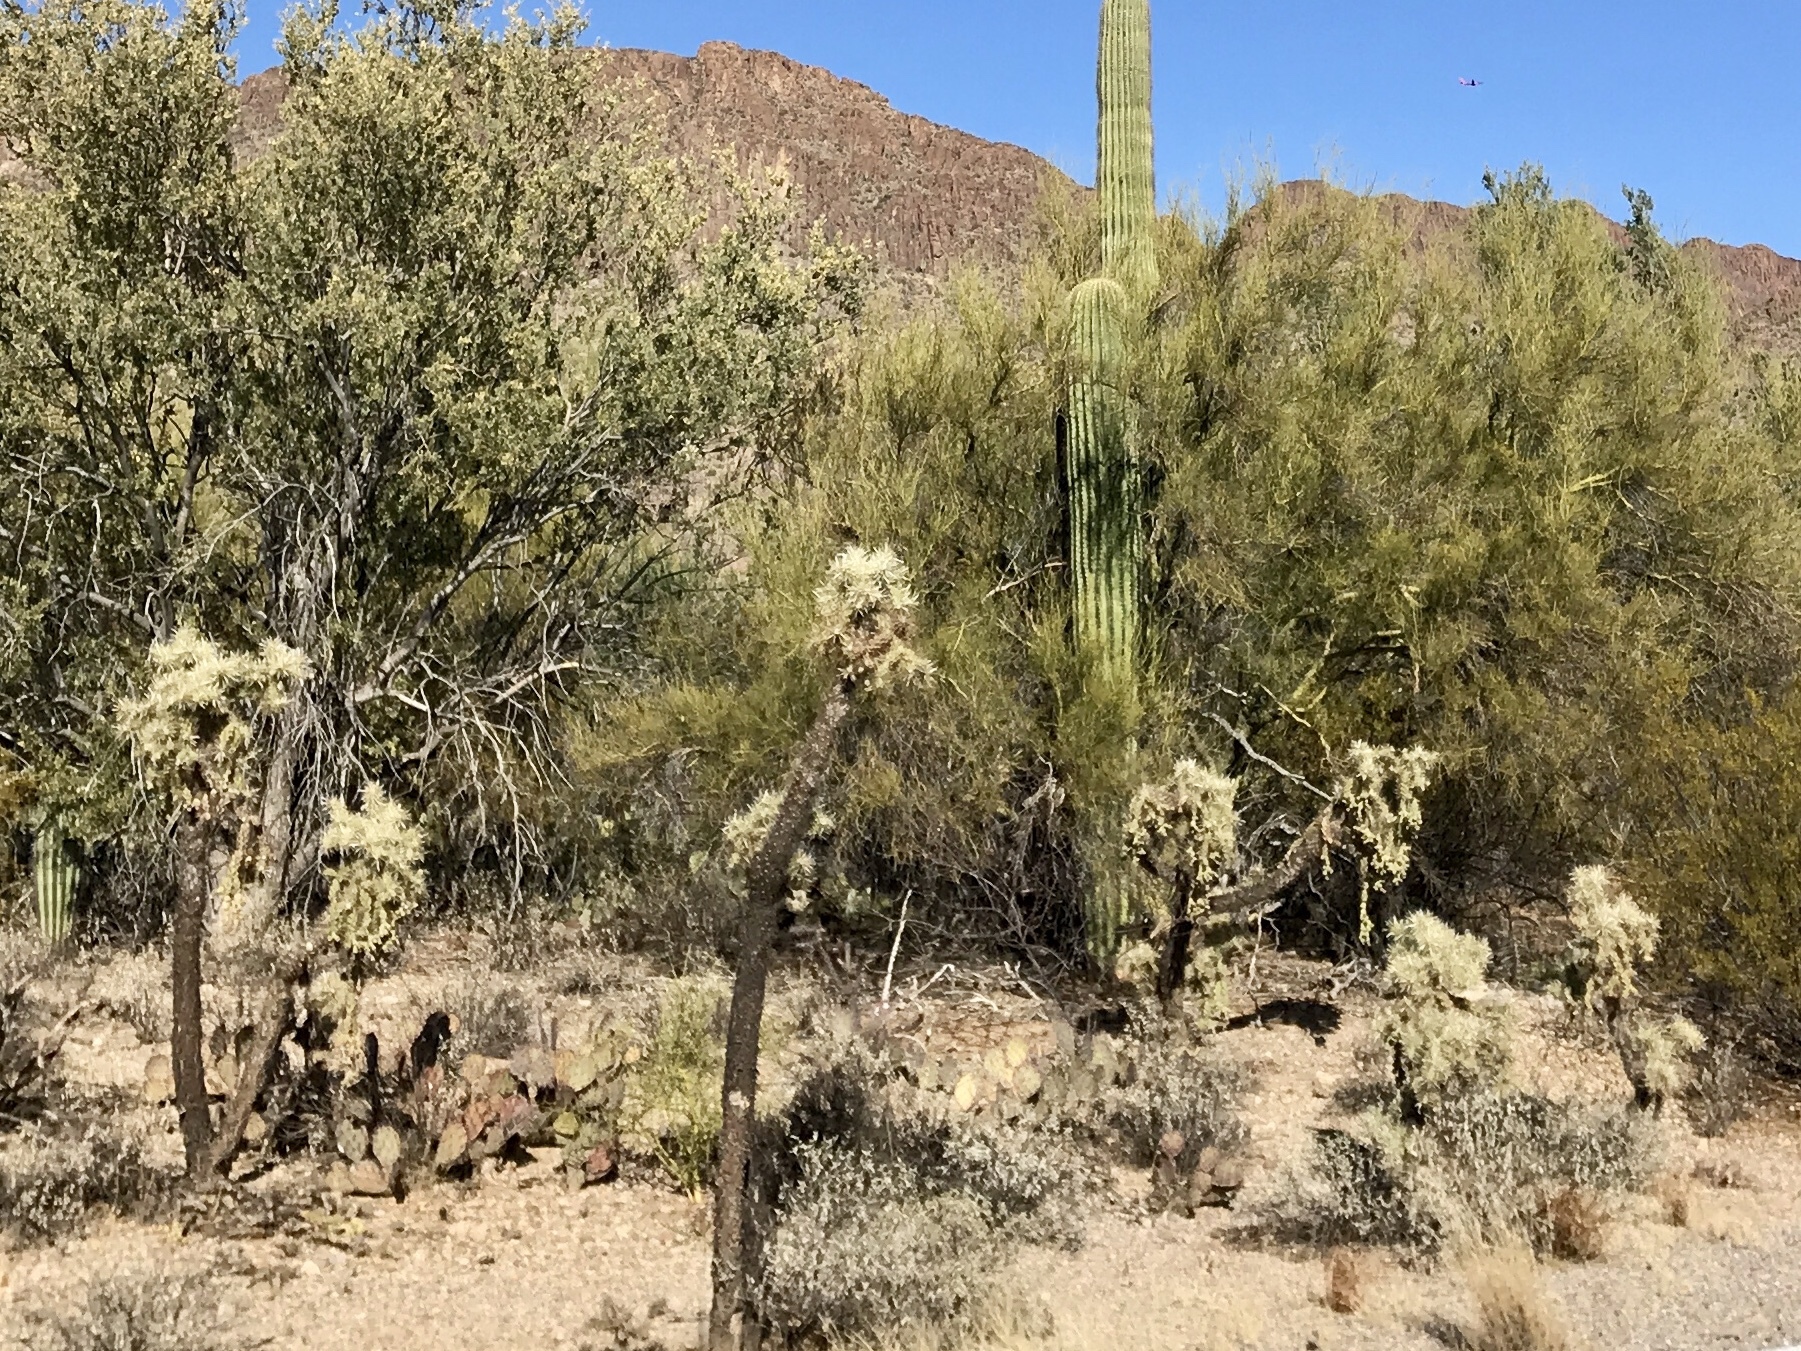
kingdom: Plantae
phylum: Tracheophyta
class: Magnoliopsida
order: Caryophyllales
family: Cactaceae
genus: Cylindropuntia
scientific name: Cylindropuntia fulgida
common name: Jumping cholla
